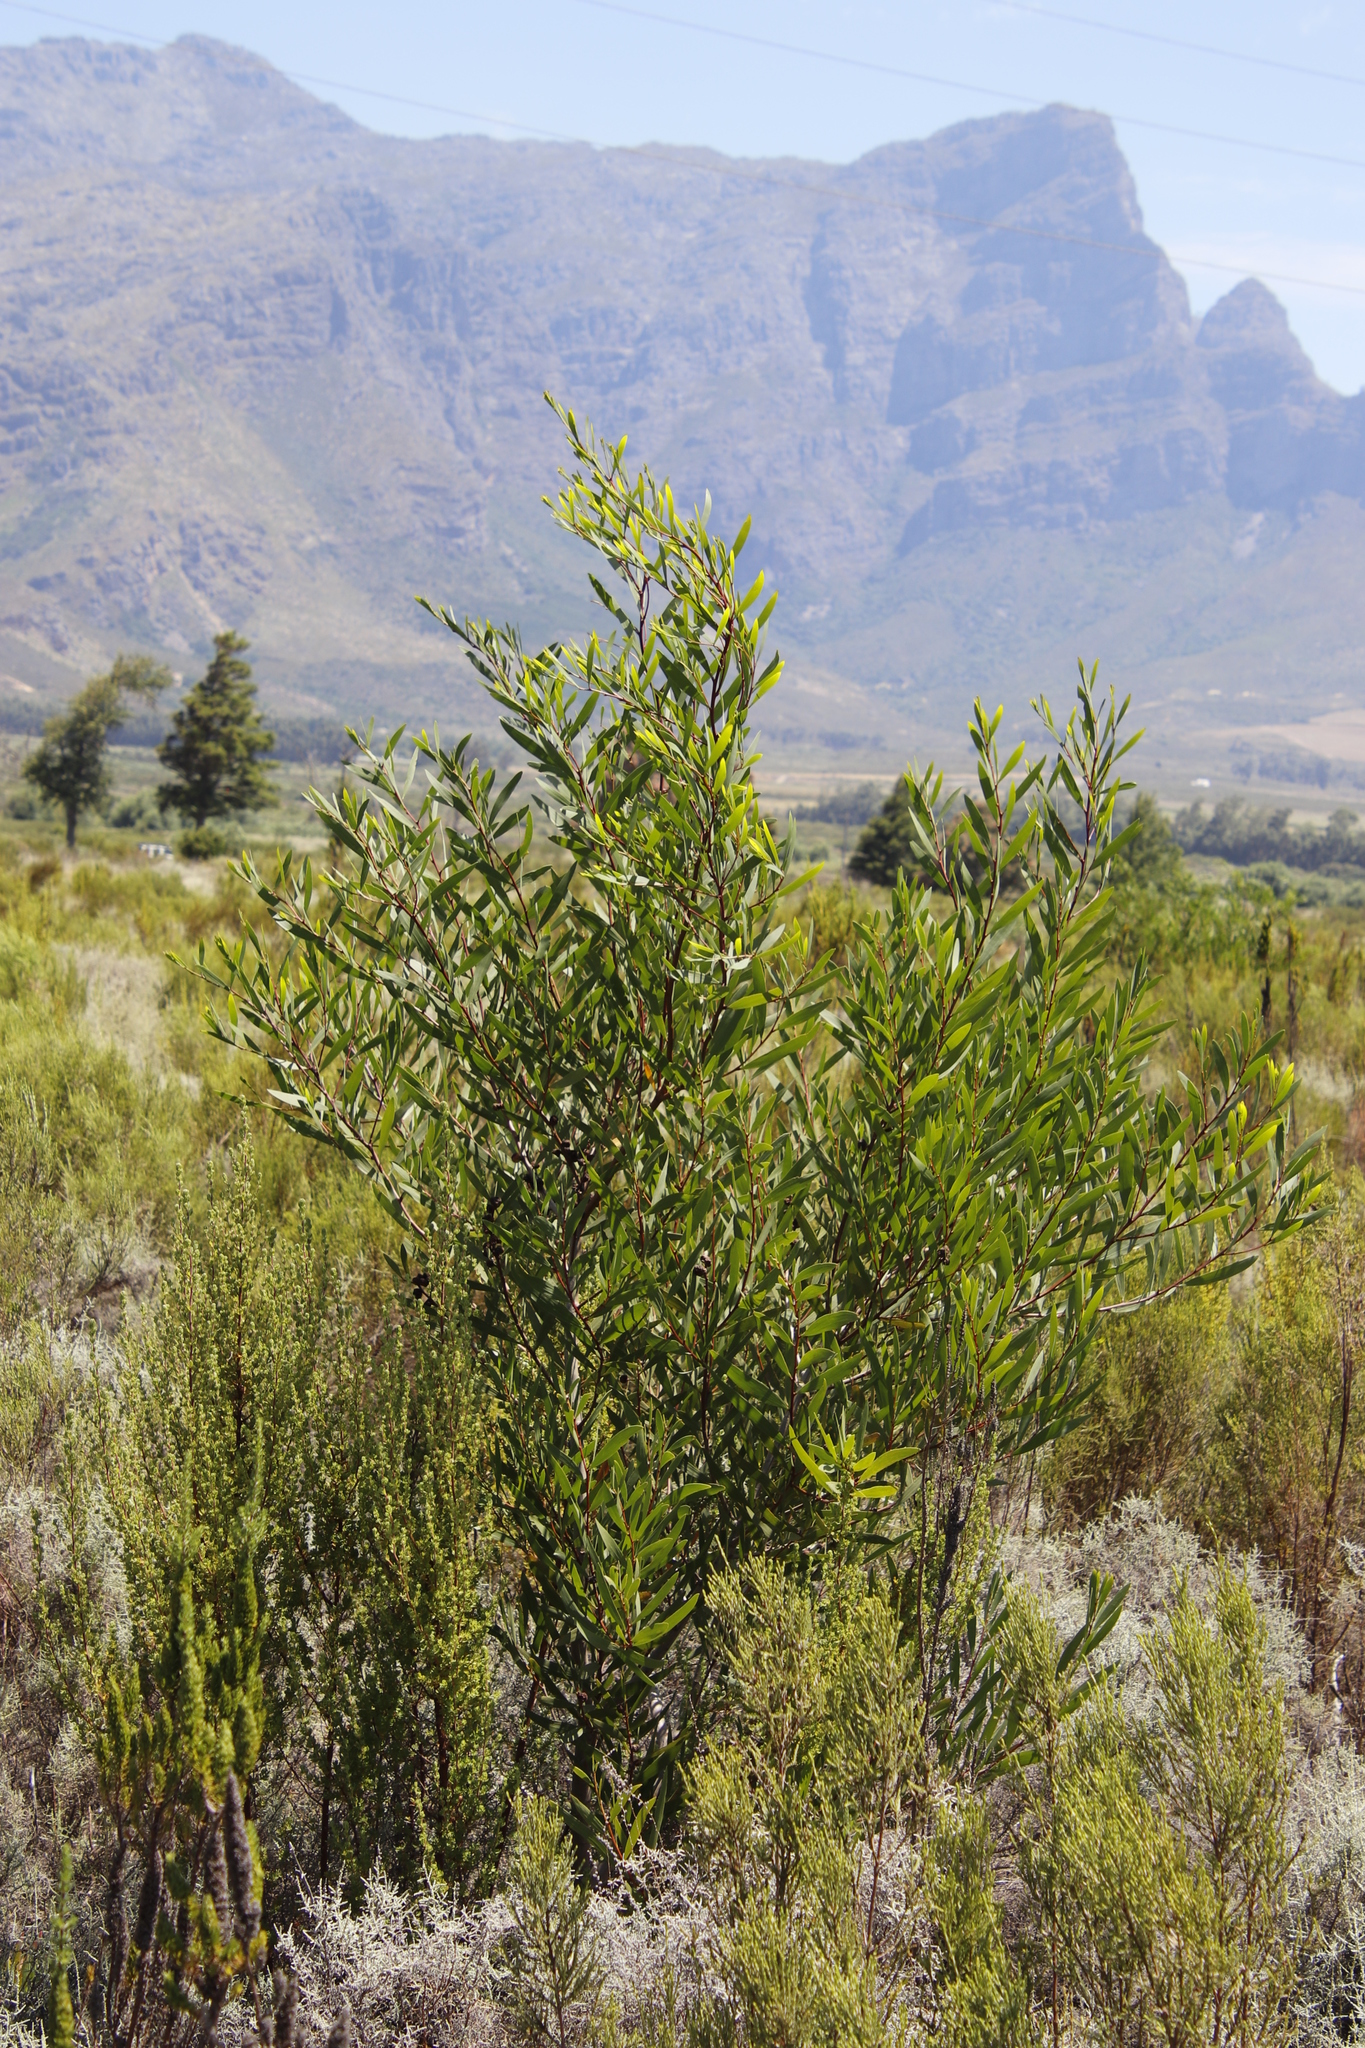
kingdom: Plantae
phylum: Tracheophyta
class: Magnoliopsida
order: Fabales
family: Fabaceae
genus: Acacia
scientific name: Acacia longifolia
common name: Sydney golden wattle
